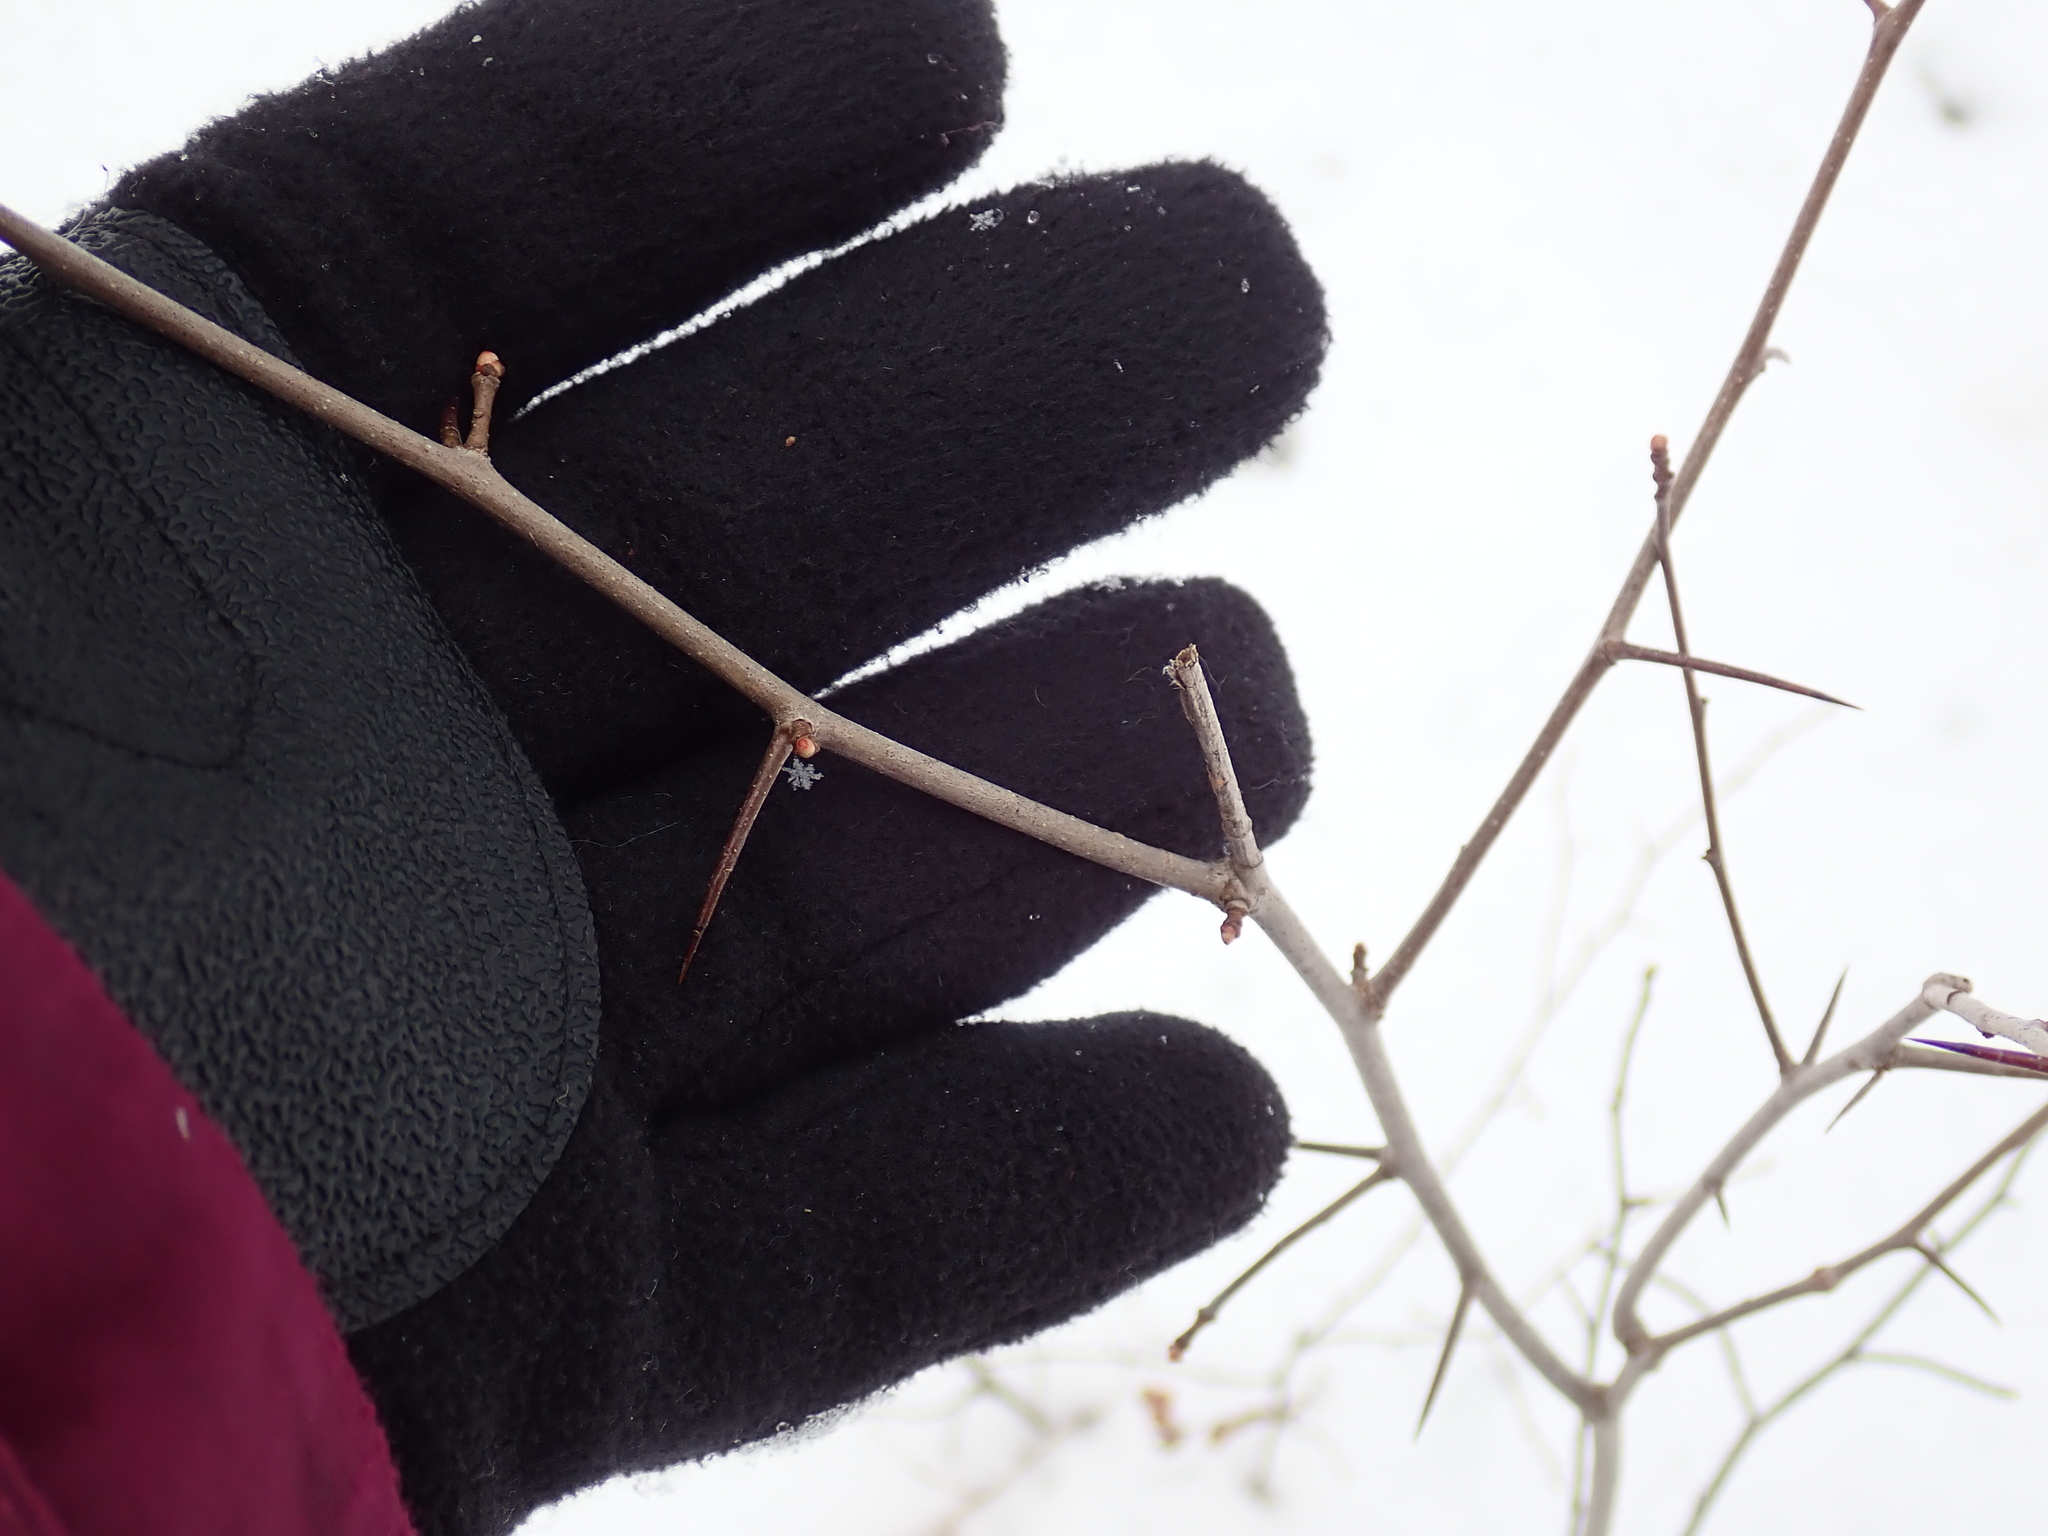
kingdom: Plantae
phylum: Tracheophyta
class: Magnoliopsida
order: Rosales
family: Rosaceae
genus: Crataegus
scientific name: Crataegus
